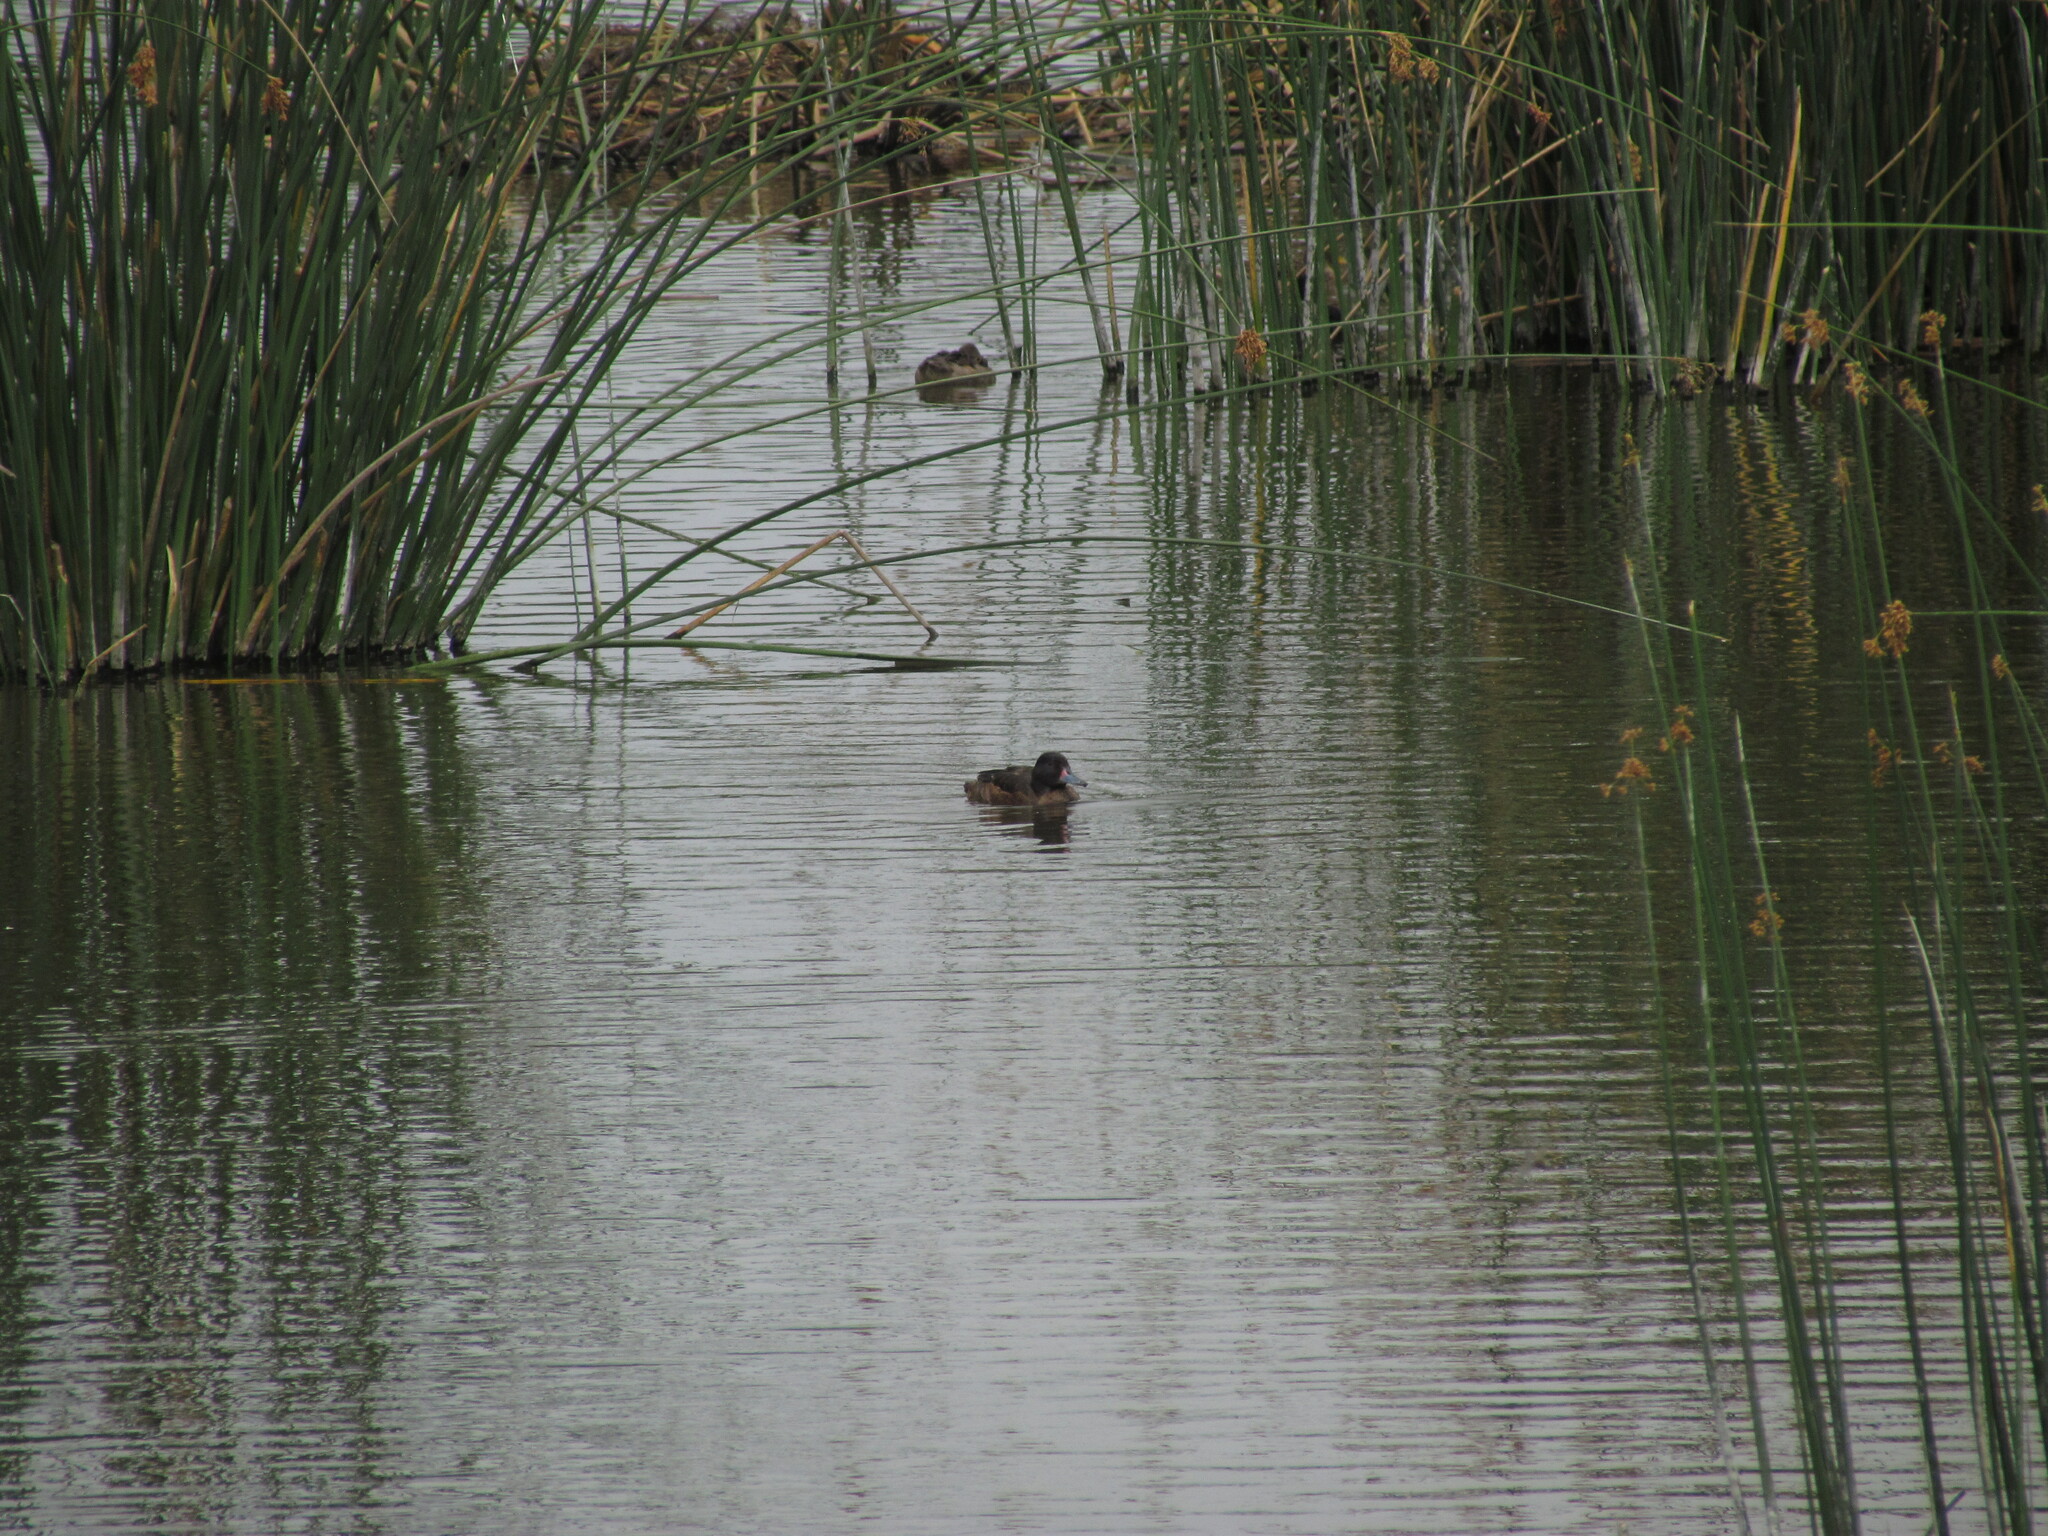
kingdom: Animalia
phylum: Chordata
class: Aves
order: Anseriformes
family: Anatidae
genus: Heteronetta
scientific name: Heteronetta atricapilla
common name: Black-headed duck
